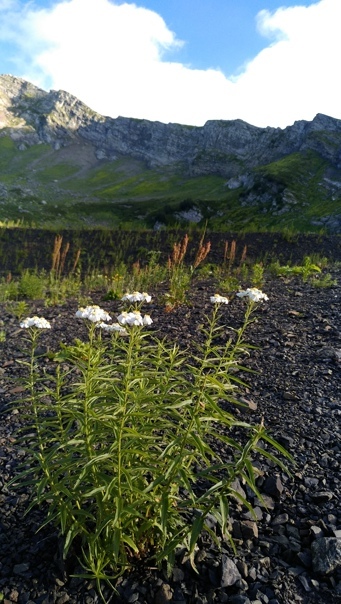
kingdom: Plantae
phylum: Tracheophyta
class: Magnoliopsida
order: Asterales
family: Asteraceae
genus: Anaphalis
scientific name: Anaphalis margaritacea
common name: Pearly everlasting
